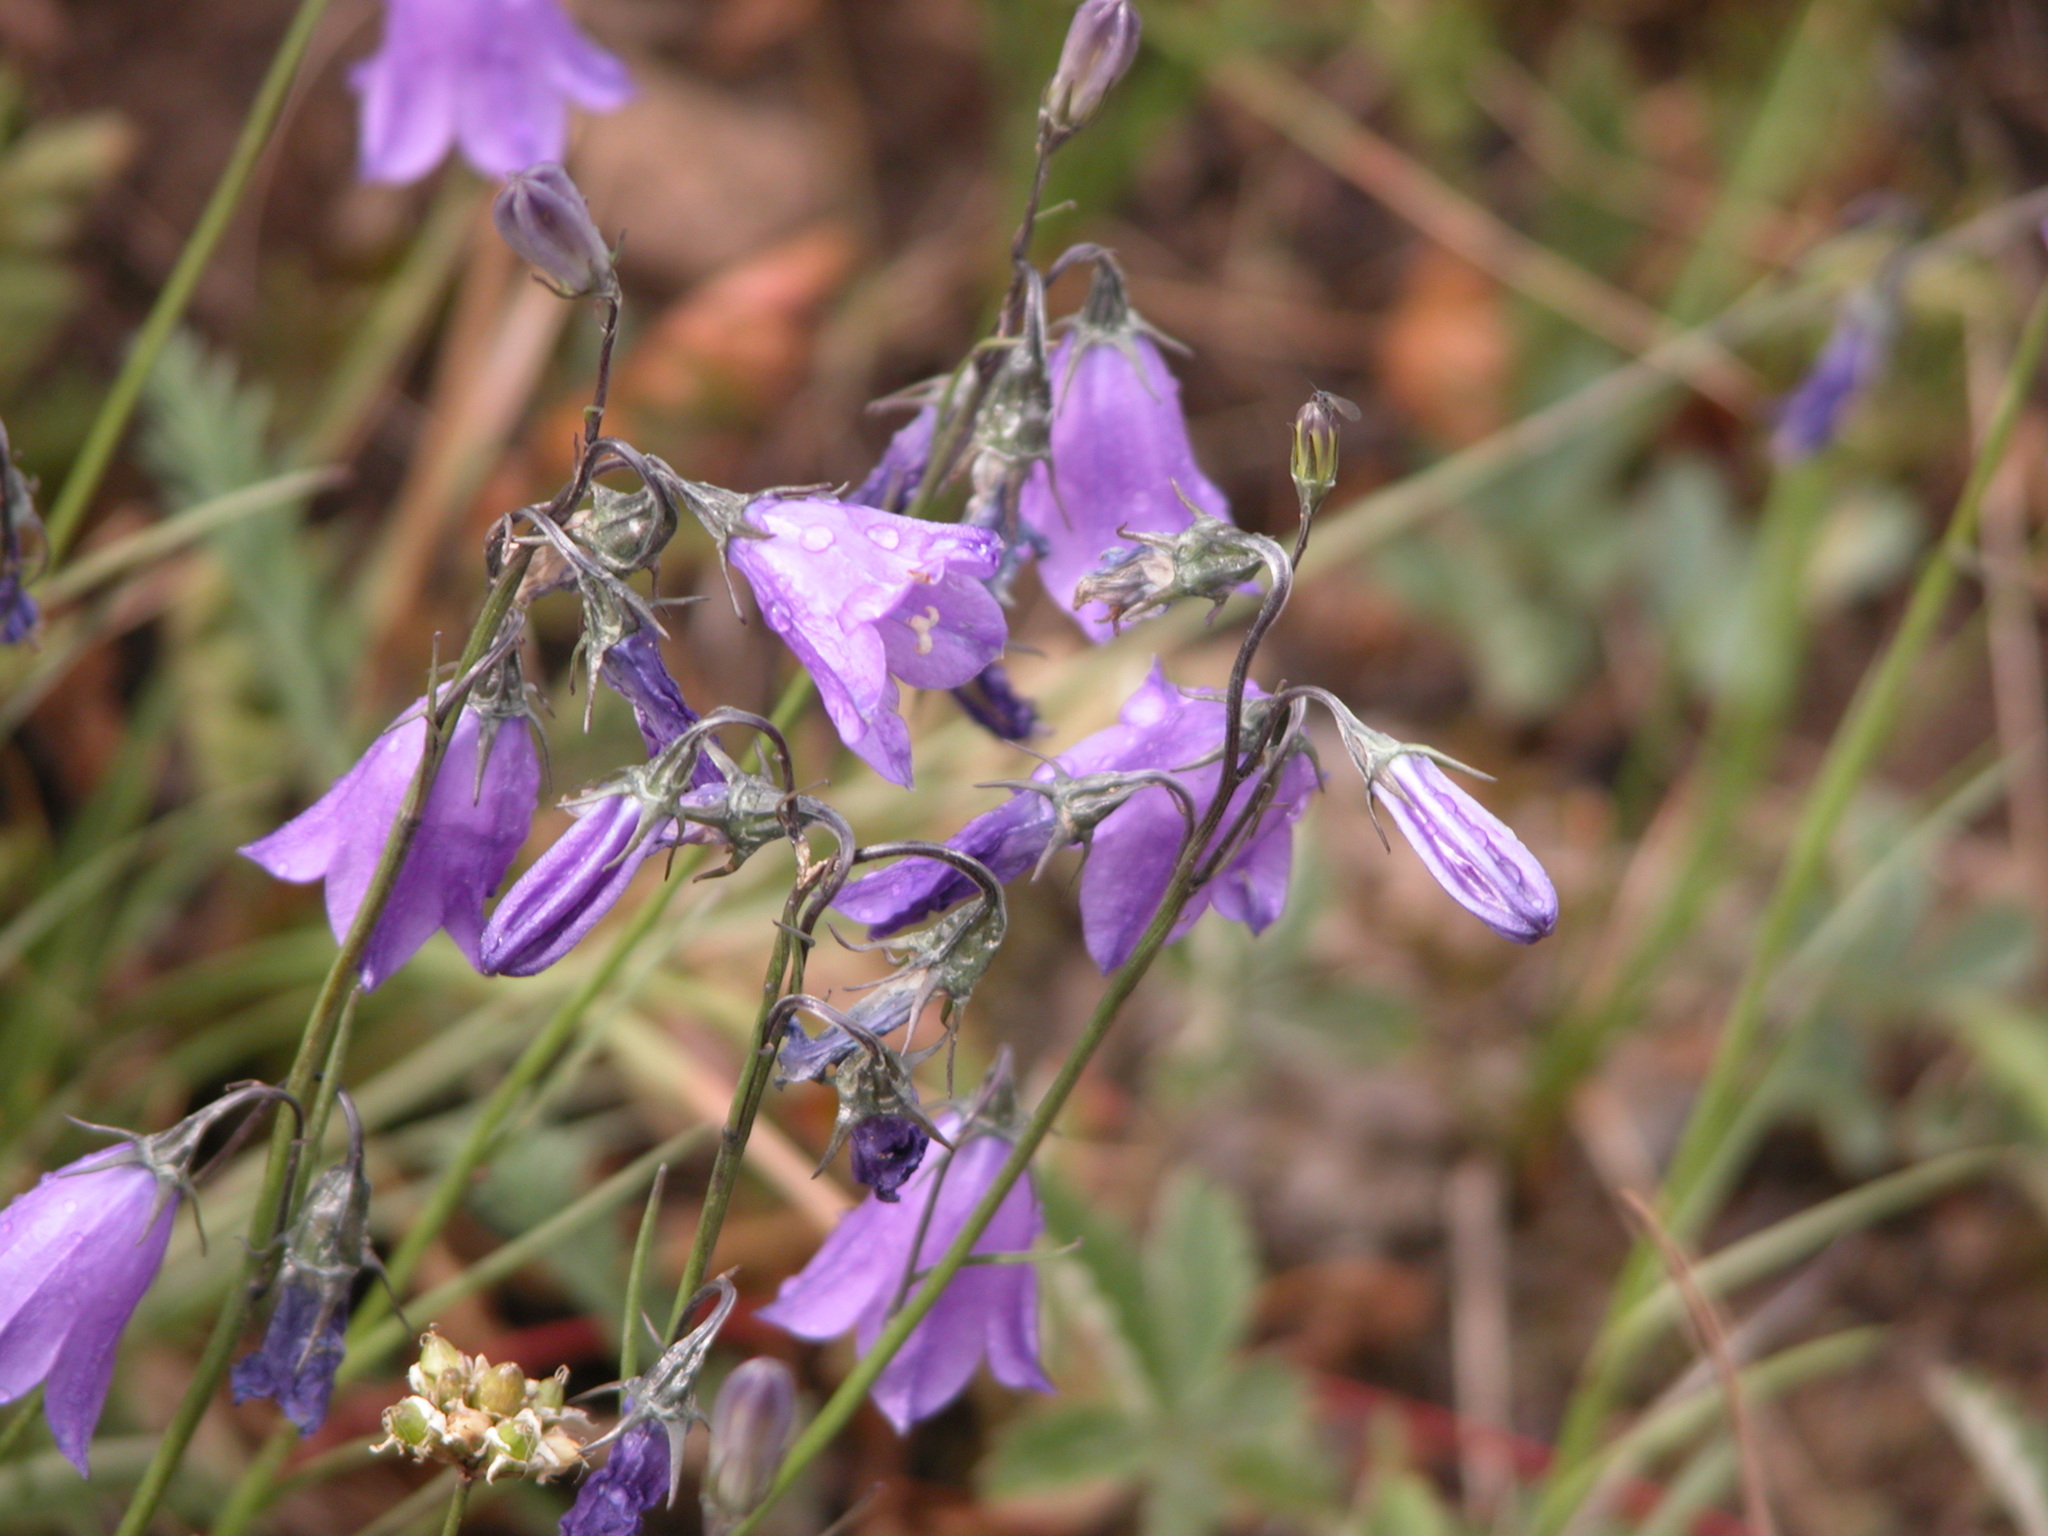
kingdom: Plantae
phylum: Tracheophyta
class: Magnoliopsida
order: Asterales
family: Campanulaceae
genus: Campanula
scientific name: Campanula petiolata
